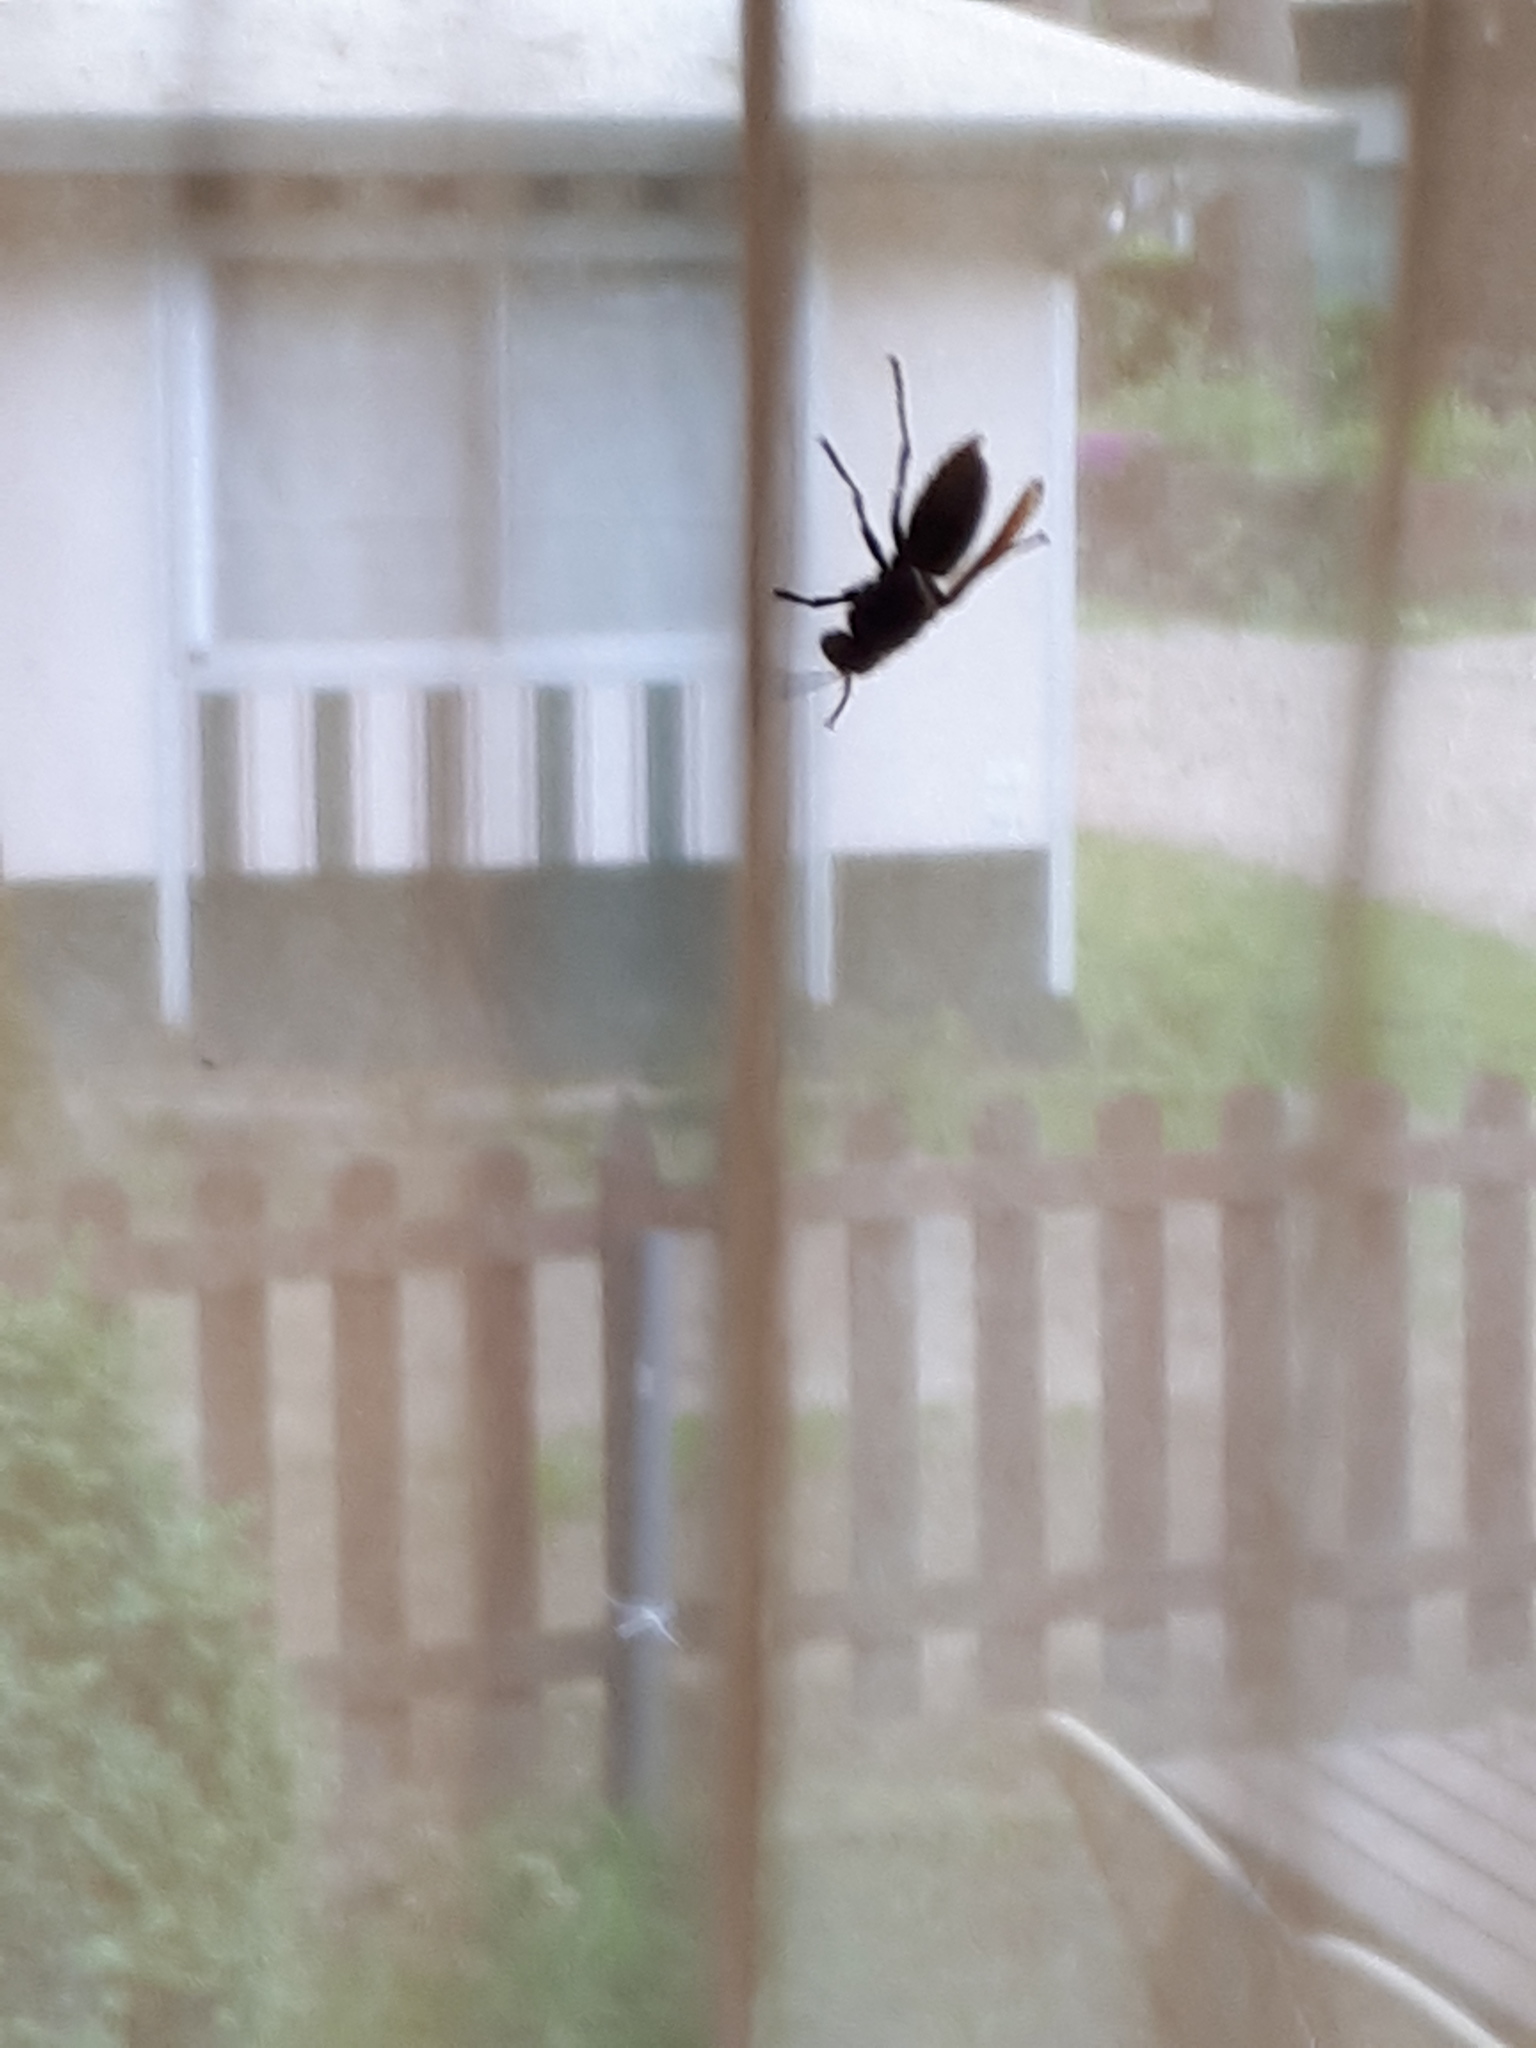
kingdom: Animalia
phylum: Arthropoda
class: Insecta
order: Hymenoptera
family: Vespidae
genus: Vespa
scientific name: Vespa crabro
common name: Hornet
